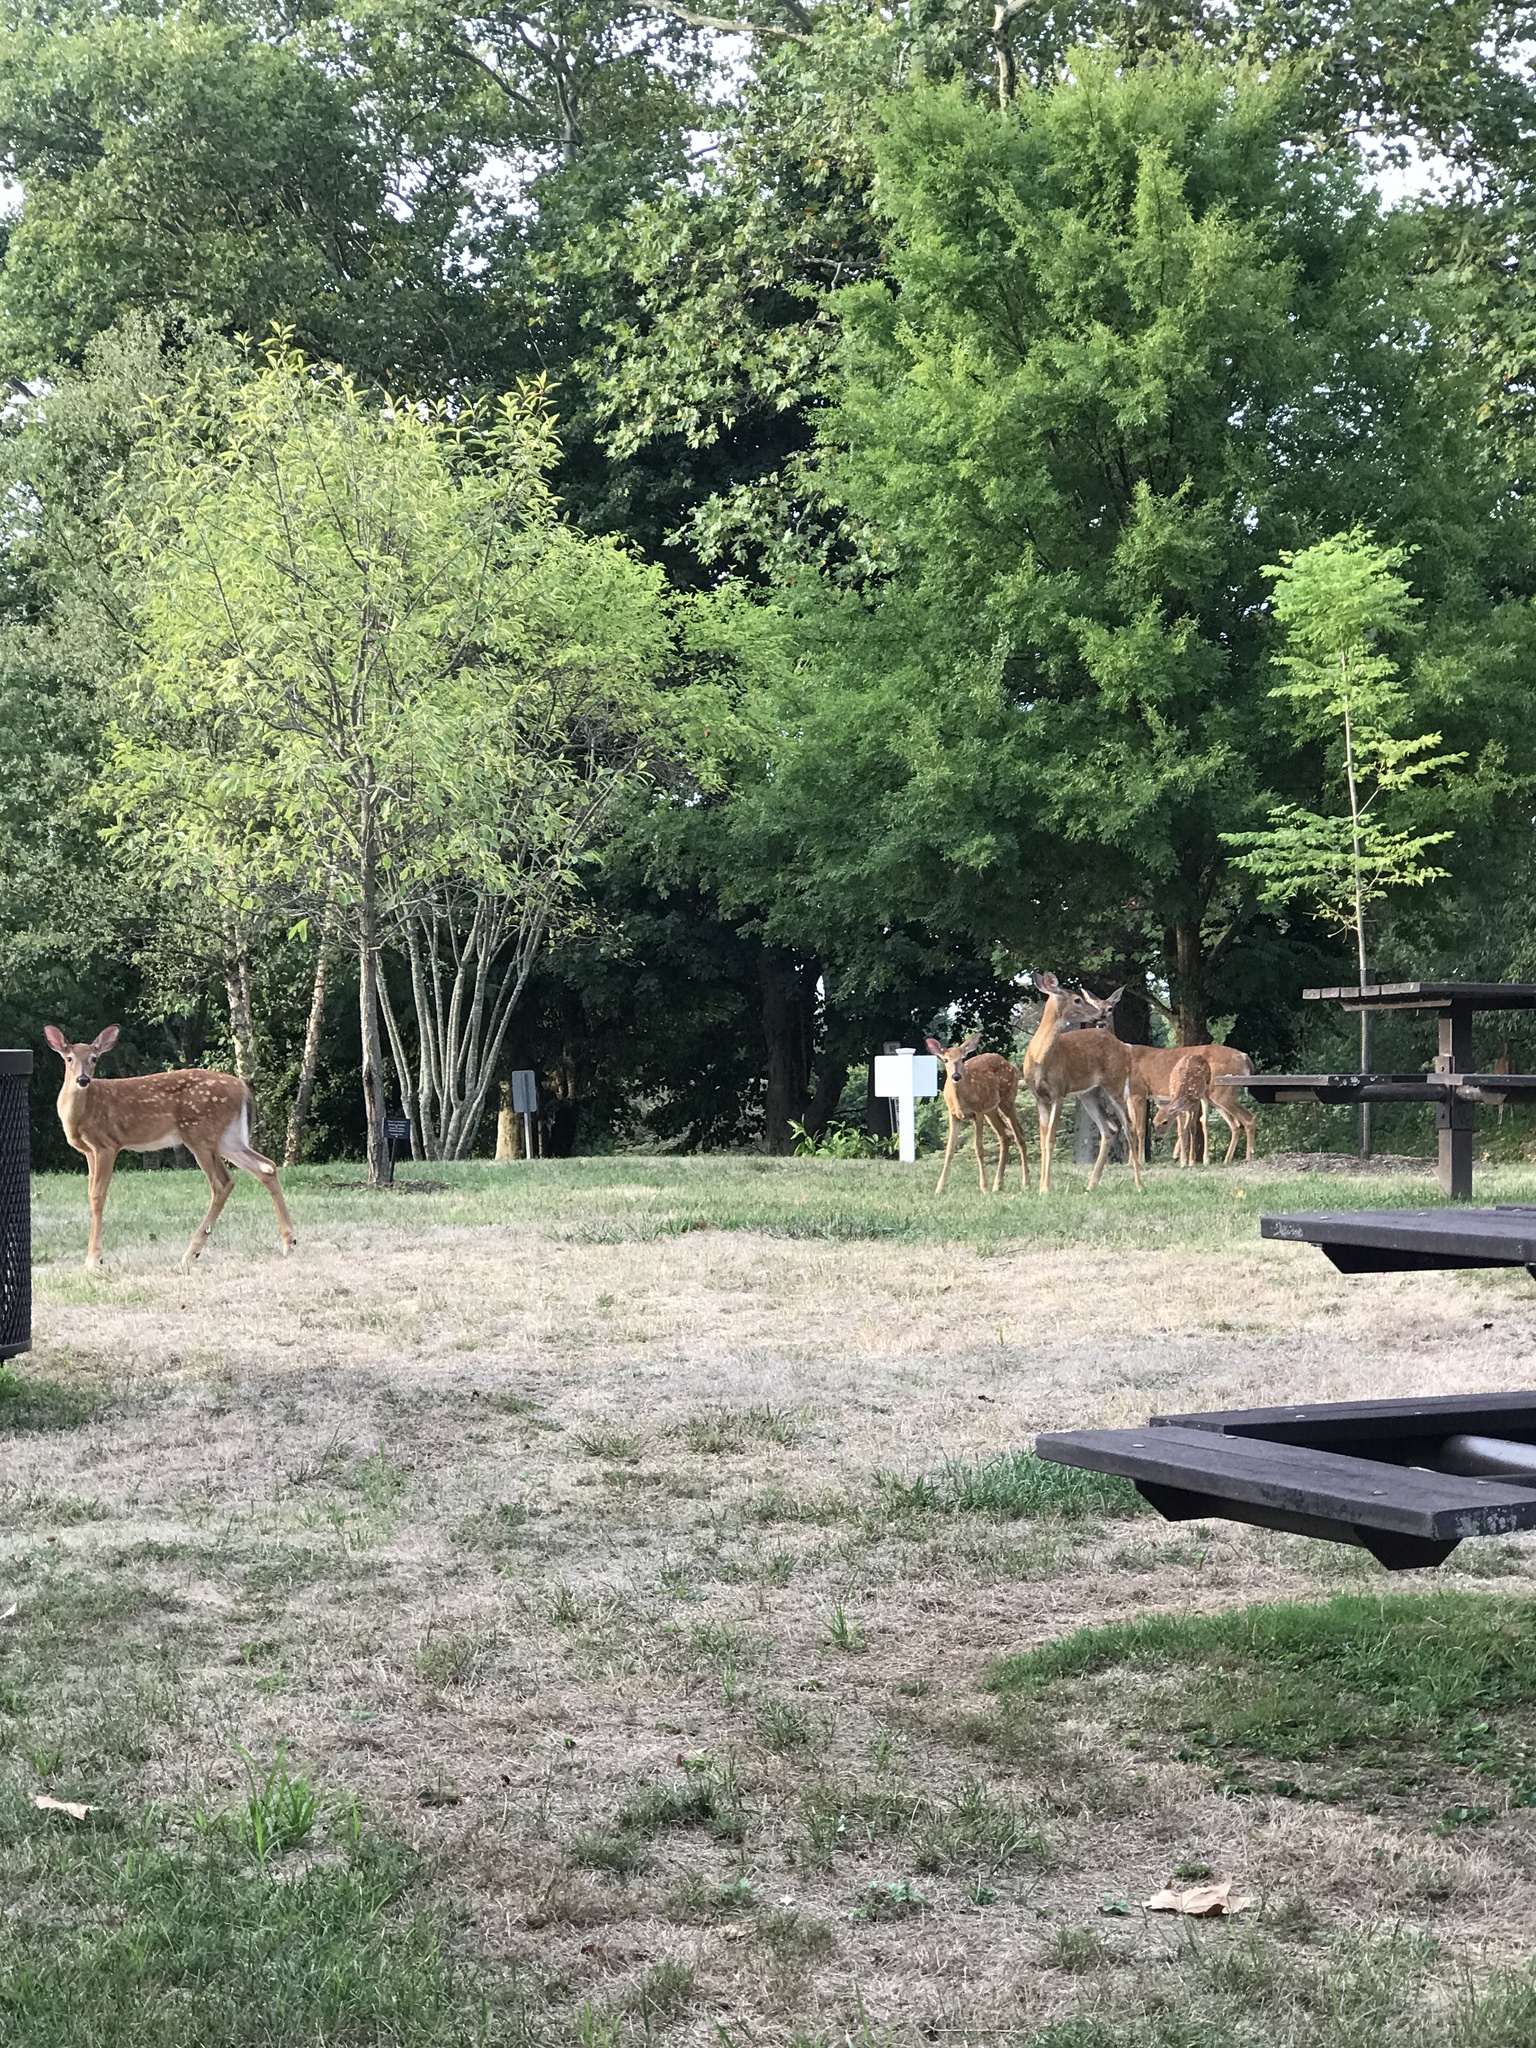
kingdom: Animalia
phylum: Chordata
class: Mammalia
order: Artiodactyla
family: Cervidae
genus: Odocoileus
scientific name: Odocoileus virginianus
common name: White-tailed deer
